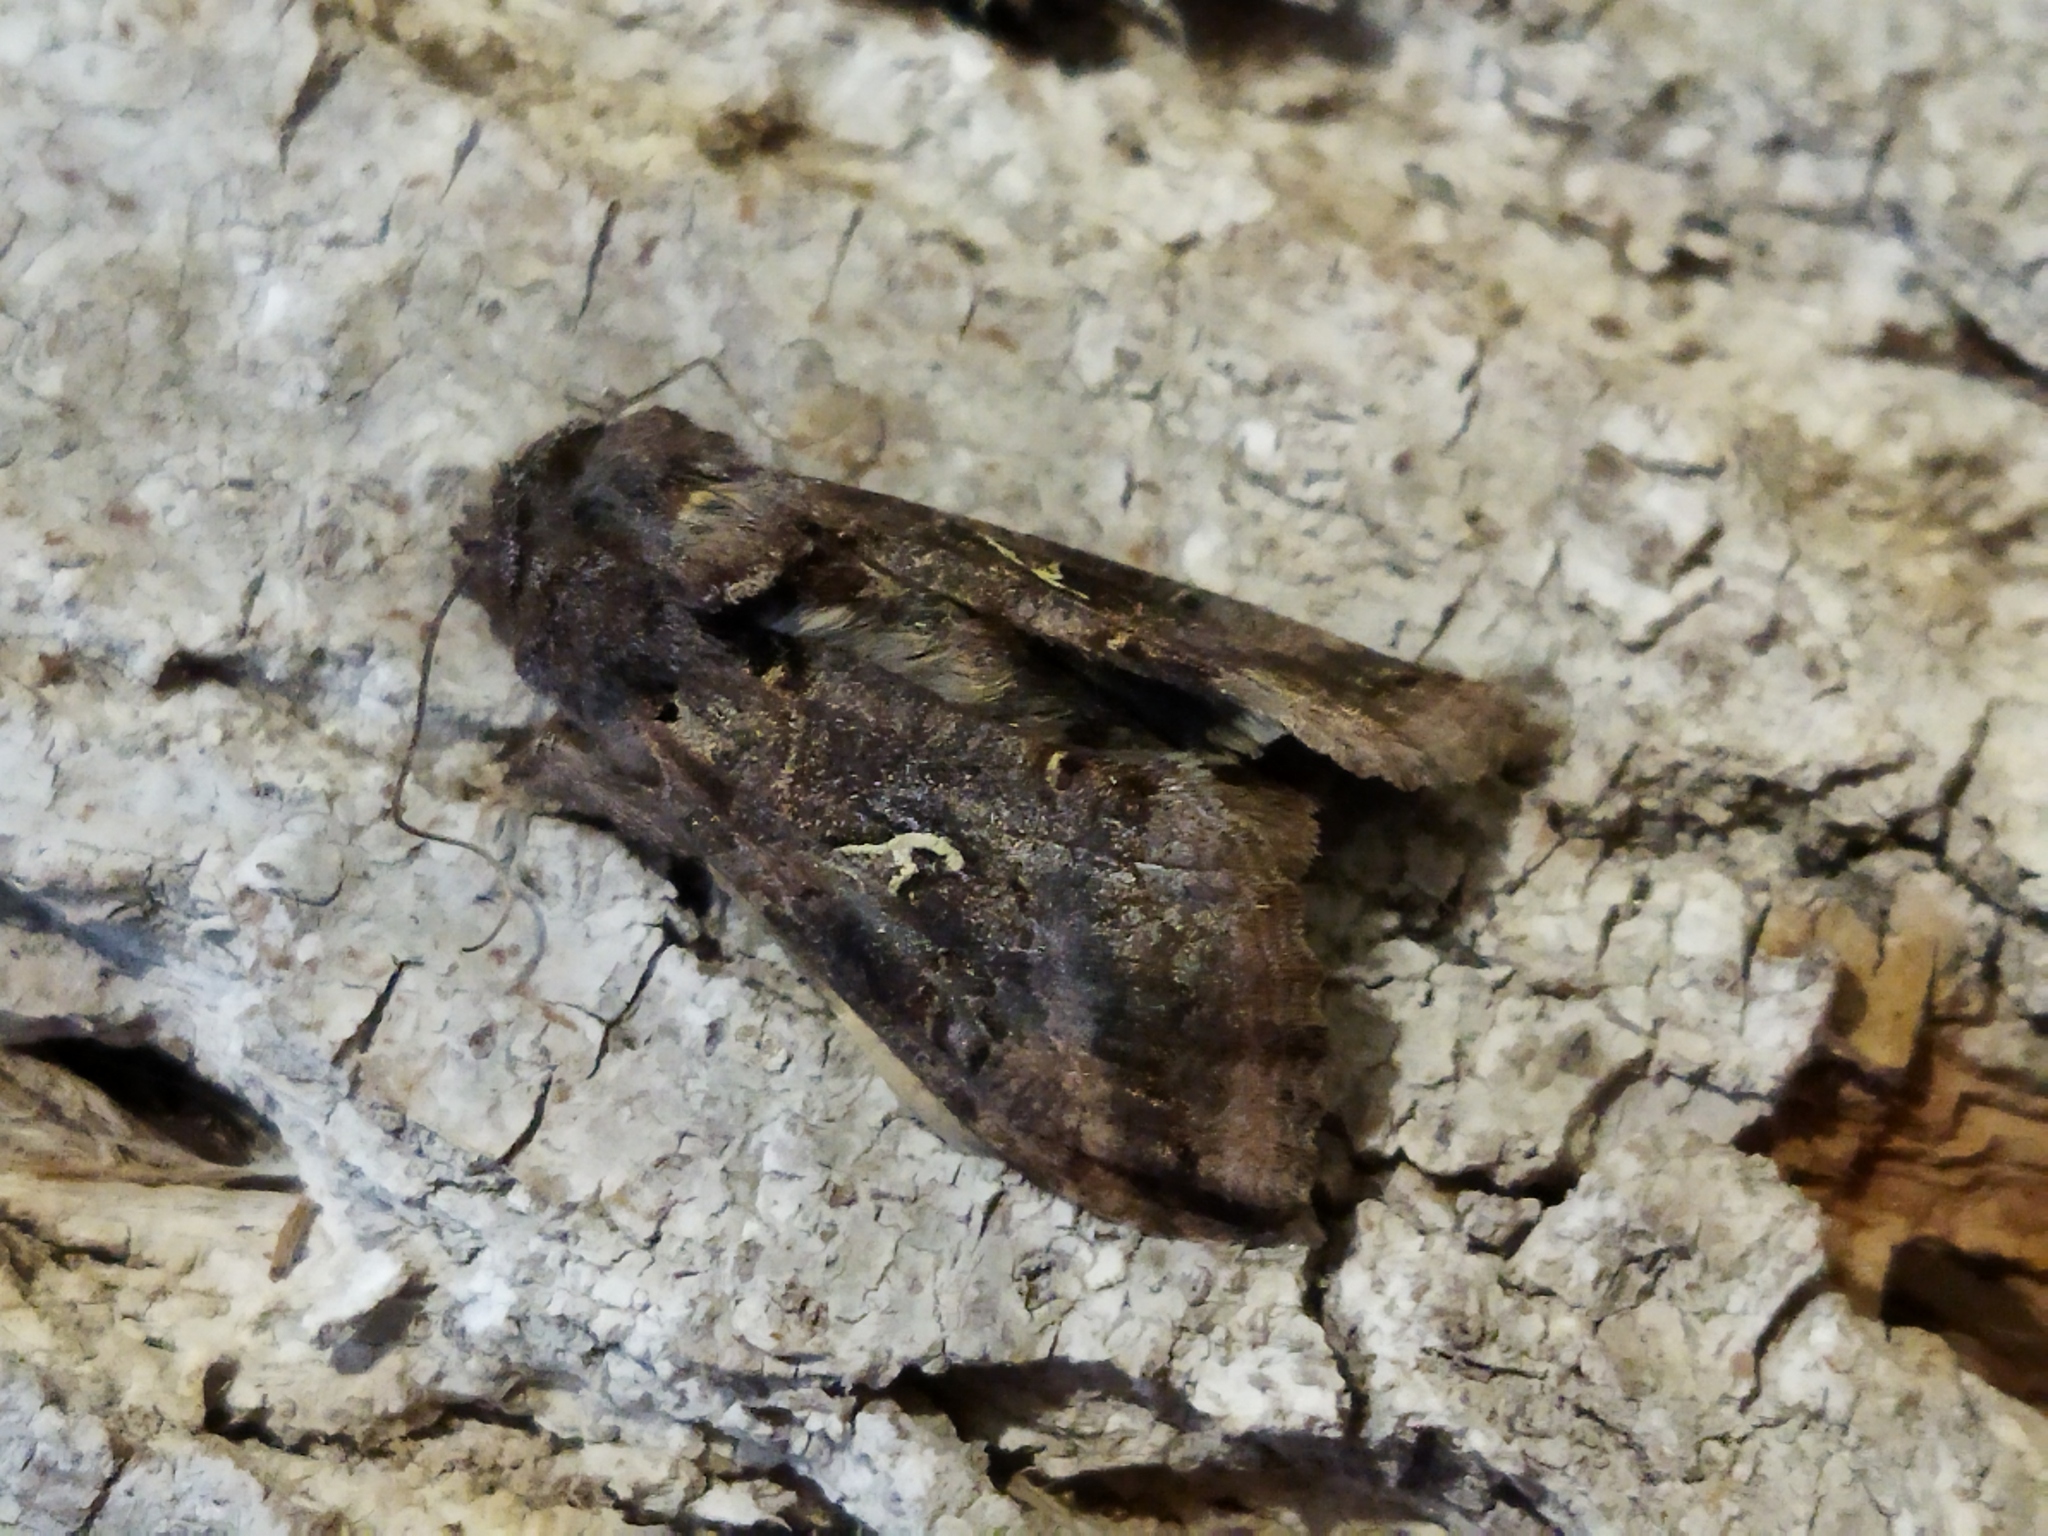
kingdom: Animalia
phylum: Arthropoda
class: Insecta
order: Lepidoptera
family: Noctuidae
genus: Autographa
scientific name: Autographa gamma
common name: Silver y
